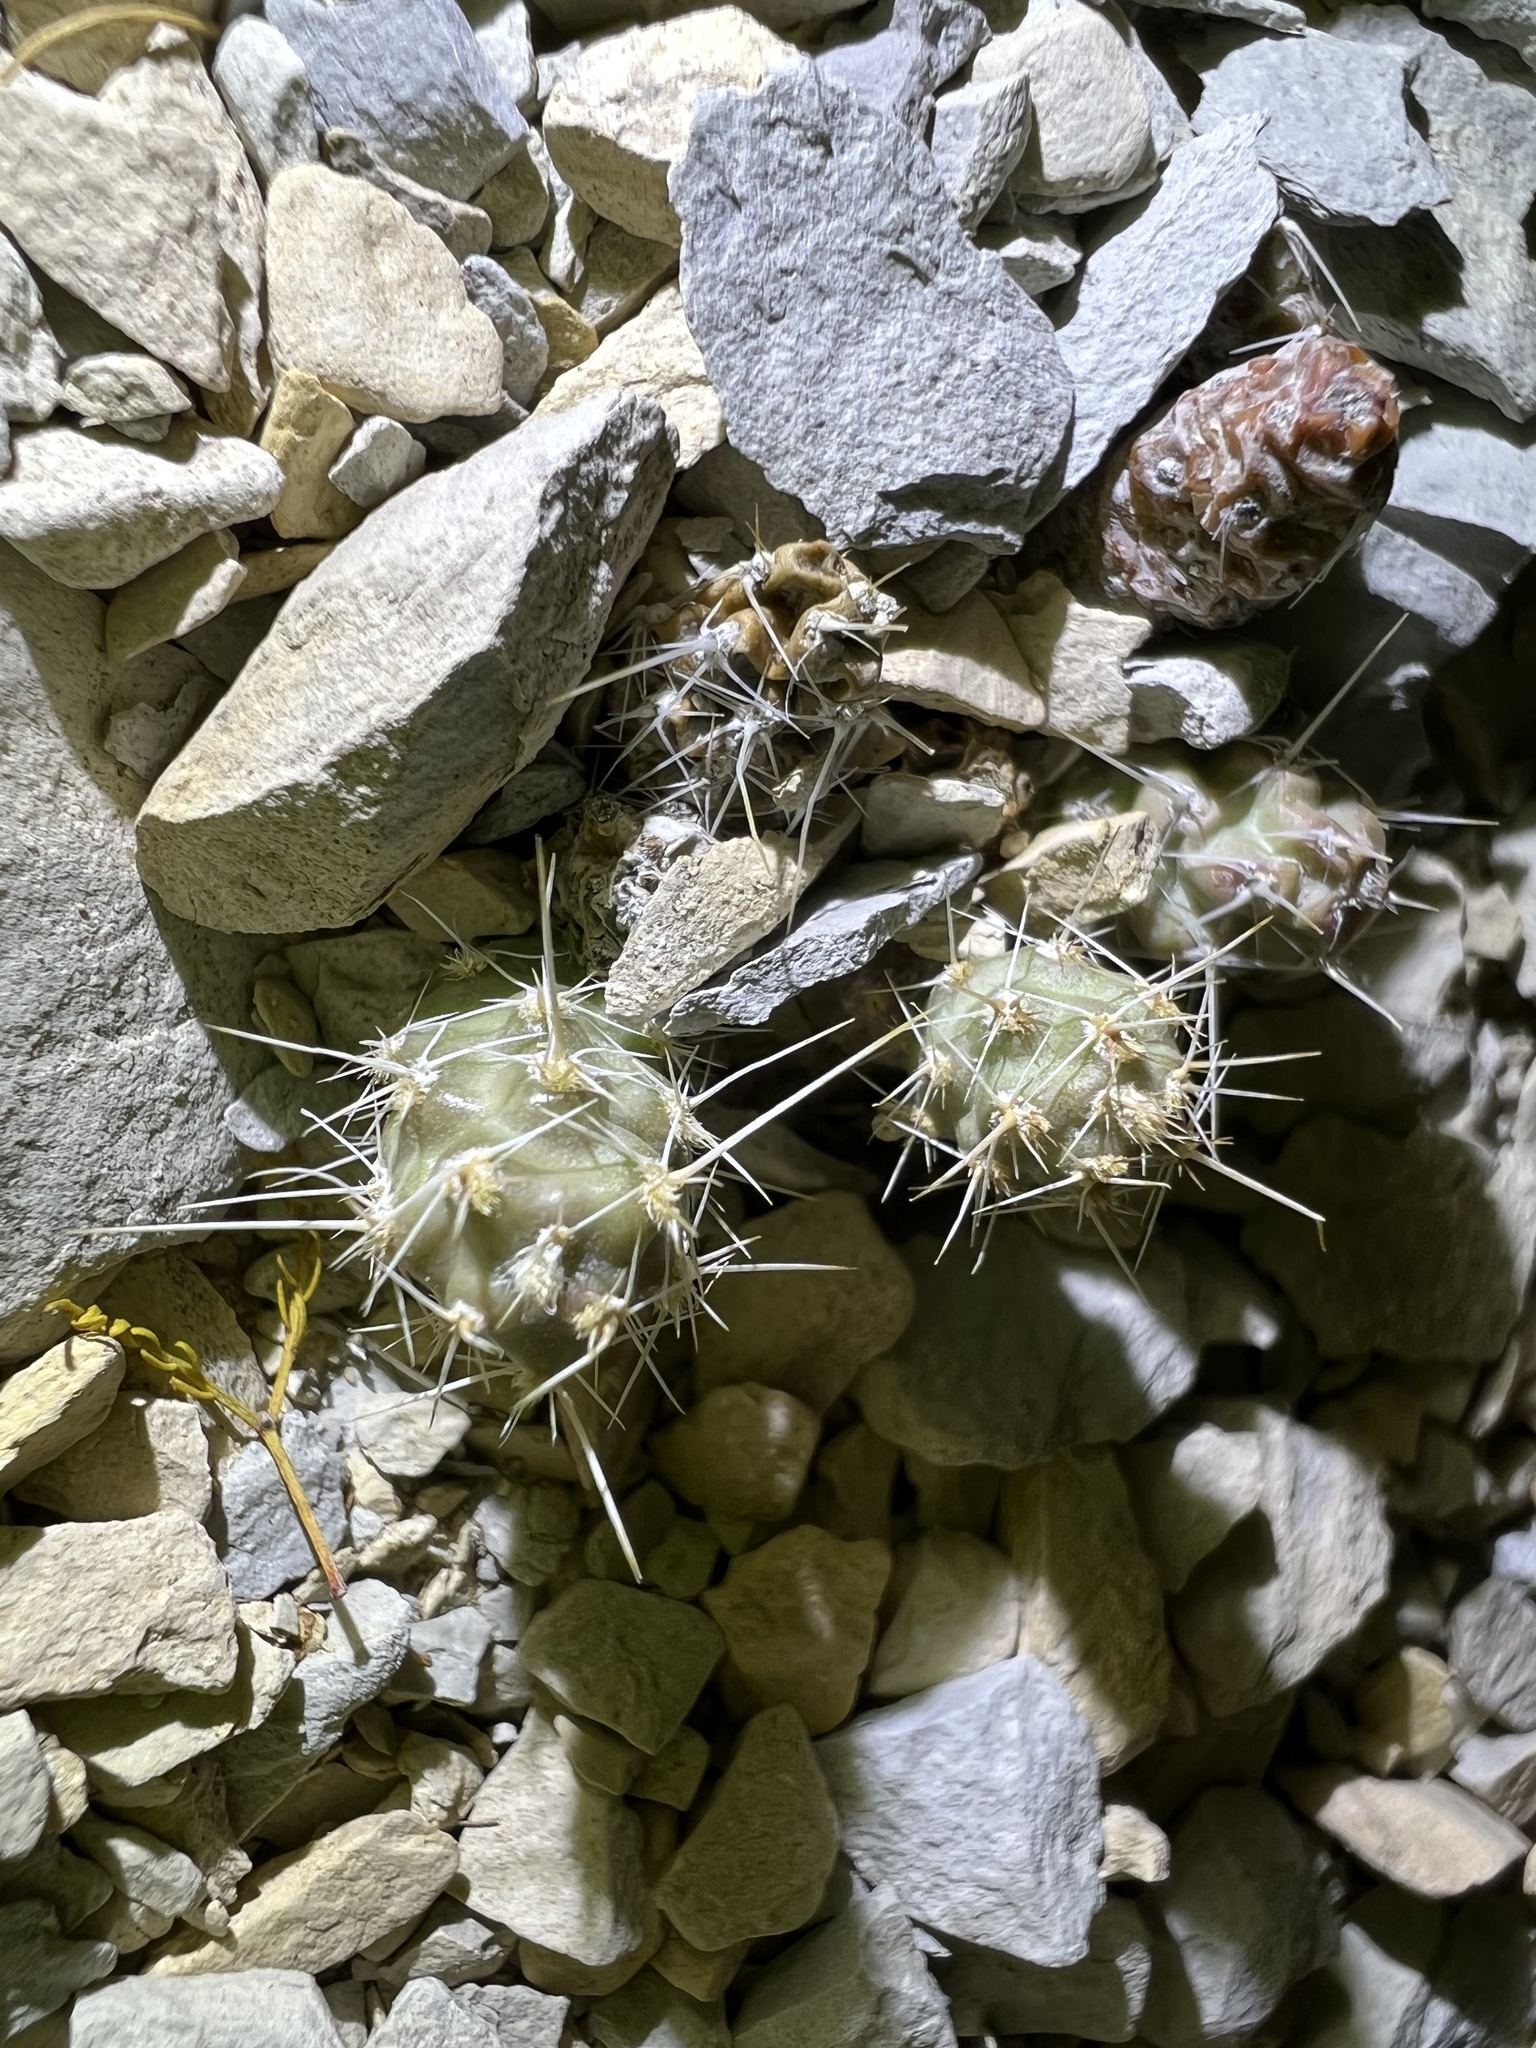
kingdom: Plantae
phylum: Tracheophyta
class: Magnoliopsida
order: Caryophyllales
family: Cactaceae
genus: Grusonia
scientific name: Grusonia aggeria
